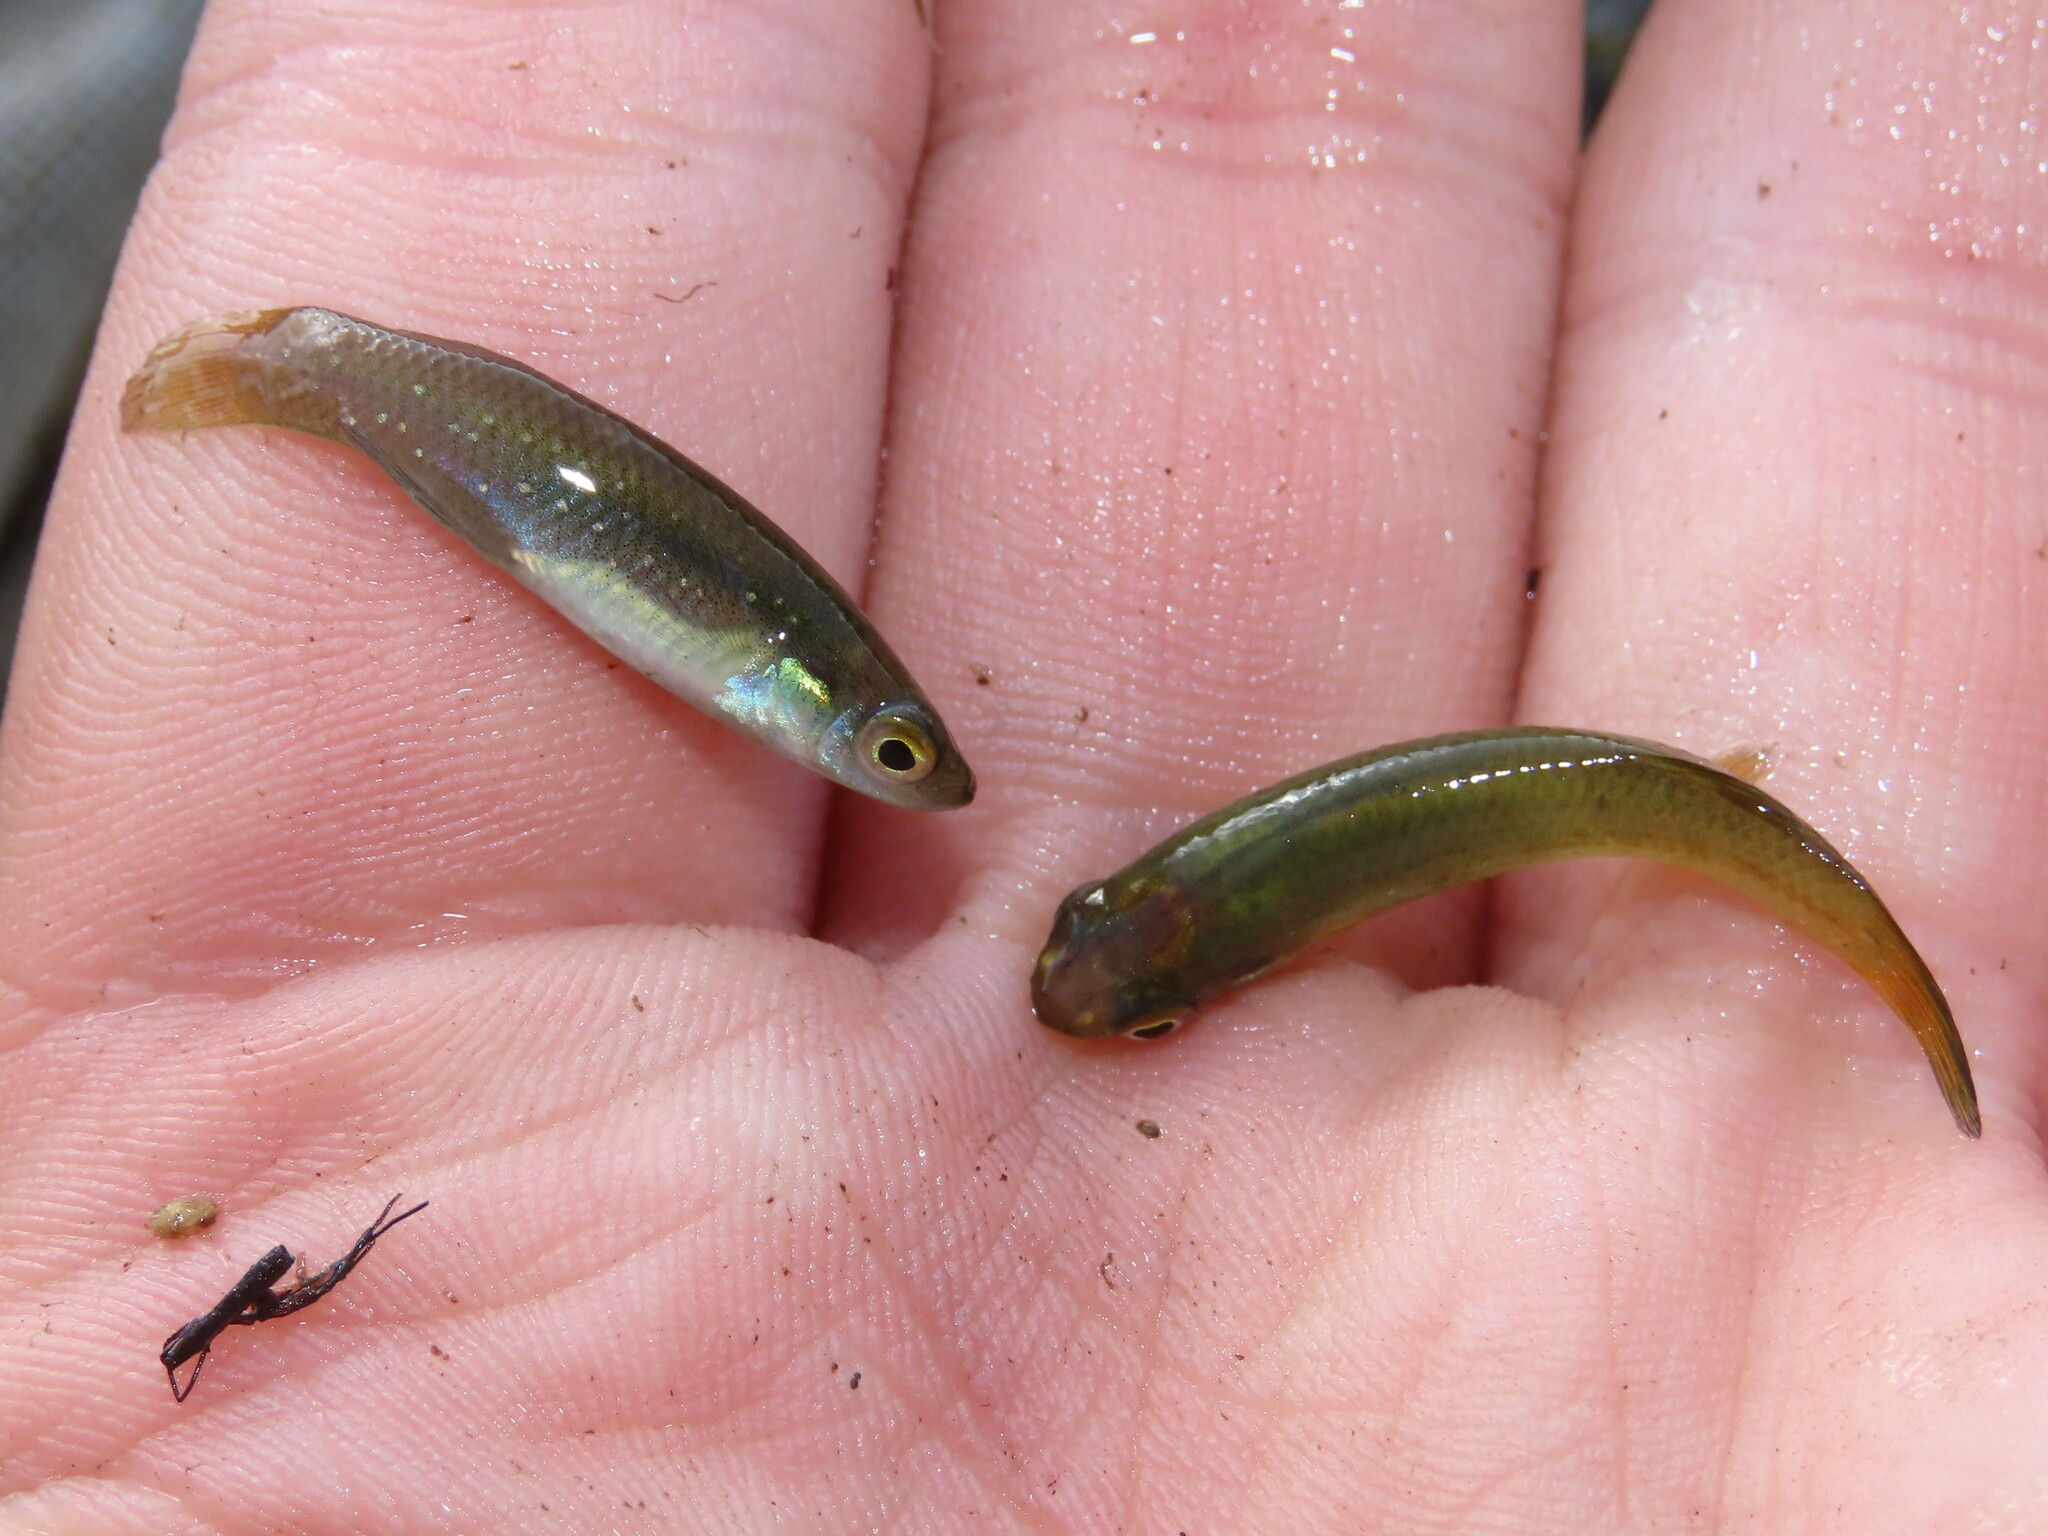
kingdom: Animalia
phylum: Chordata
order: Cyprinodontiformes
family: Fundulidae
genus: Fundulus
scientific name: Fundulus chrysotus
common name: Golden topminnow
